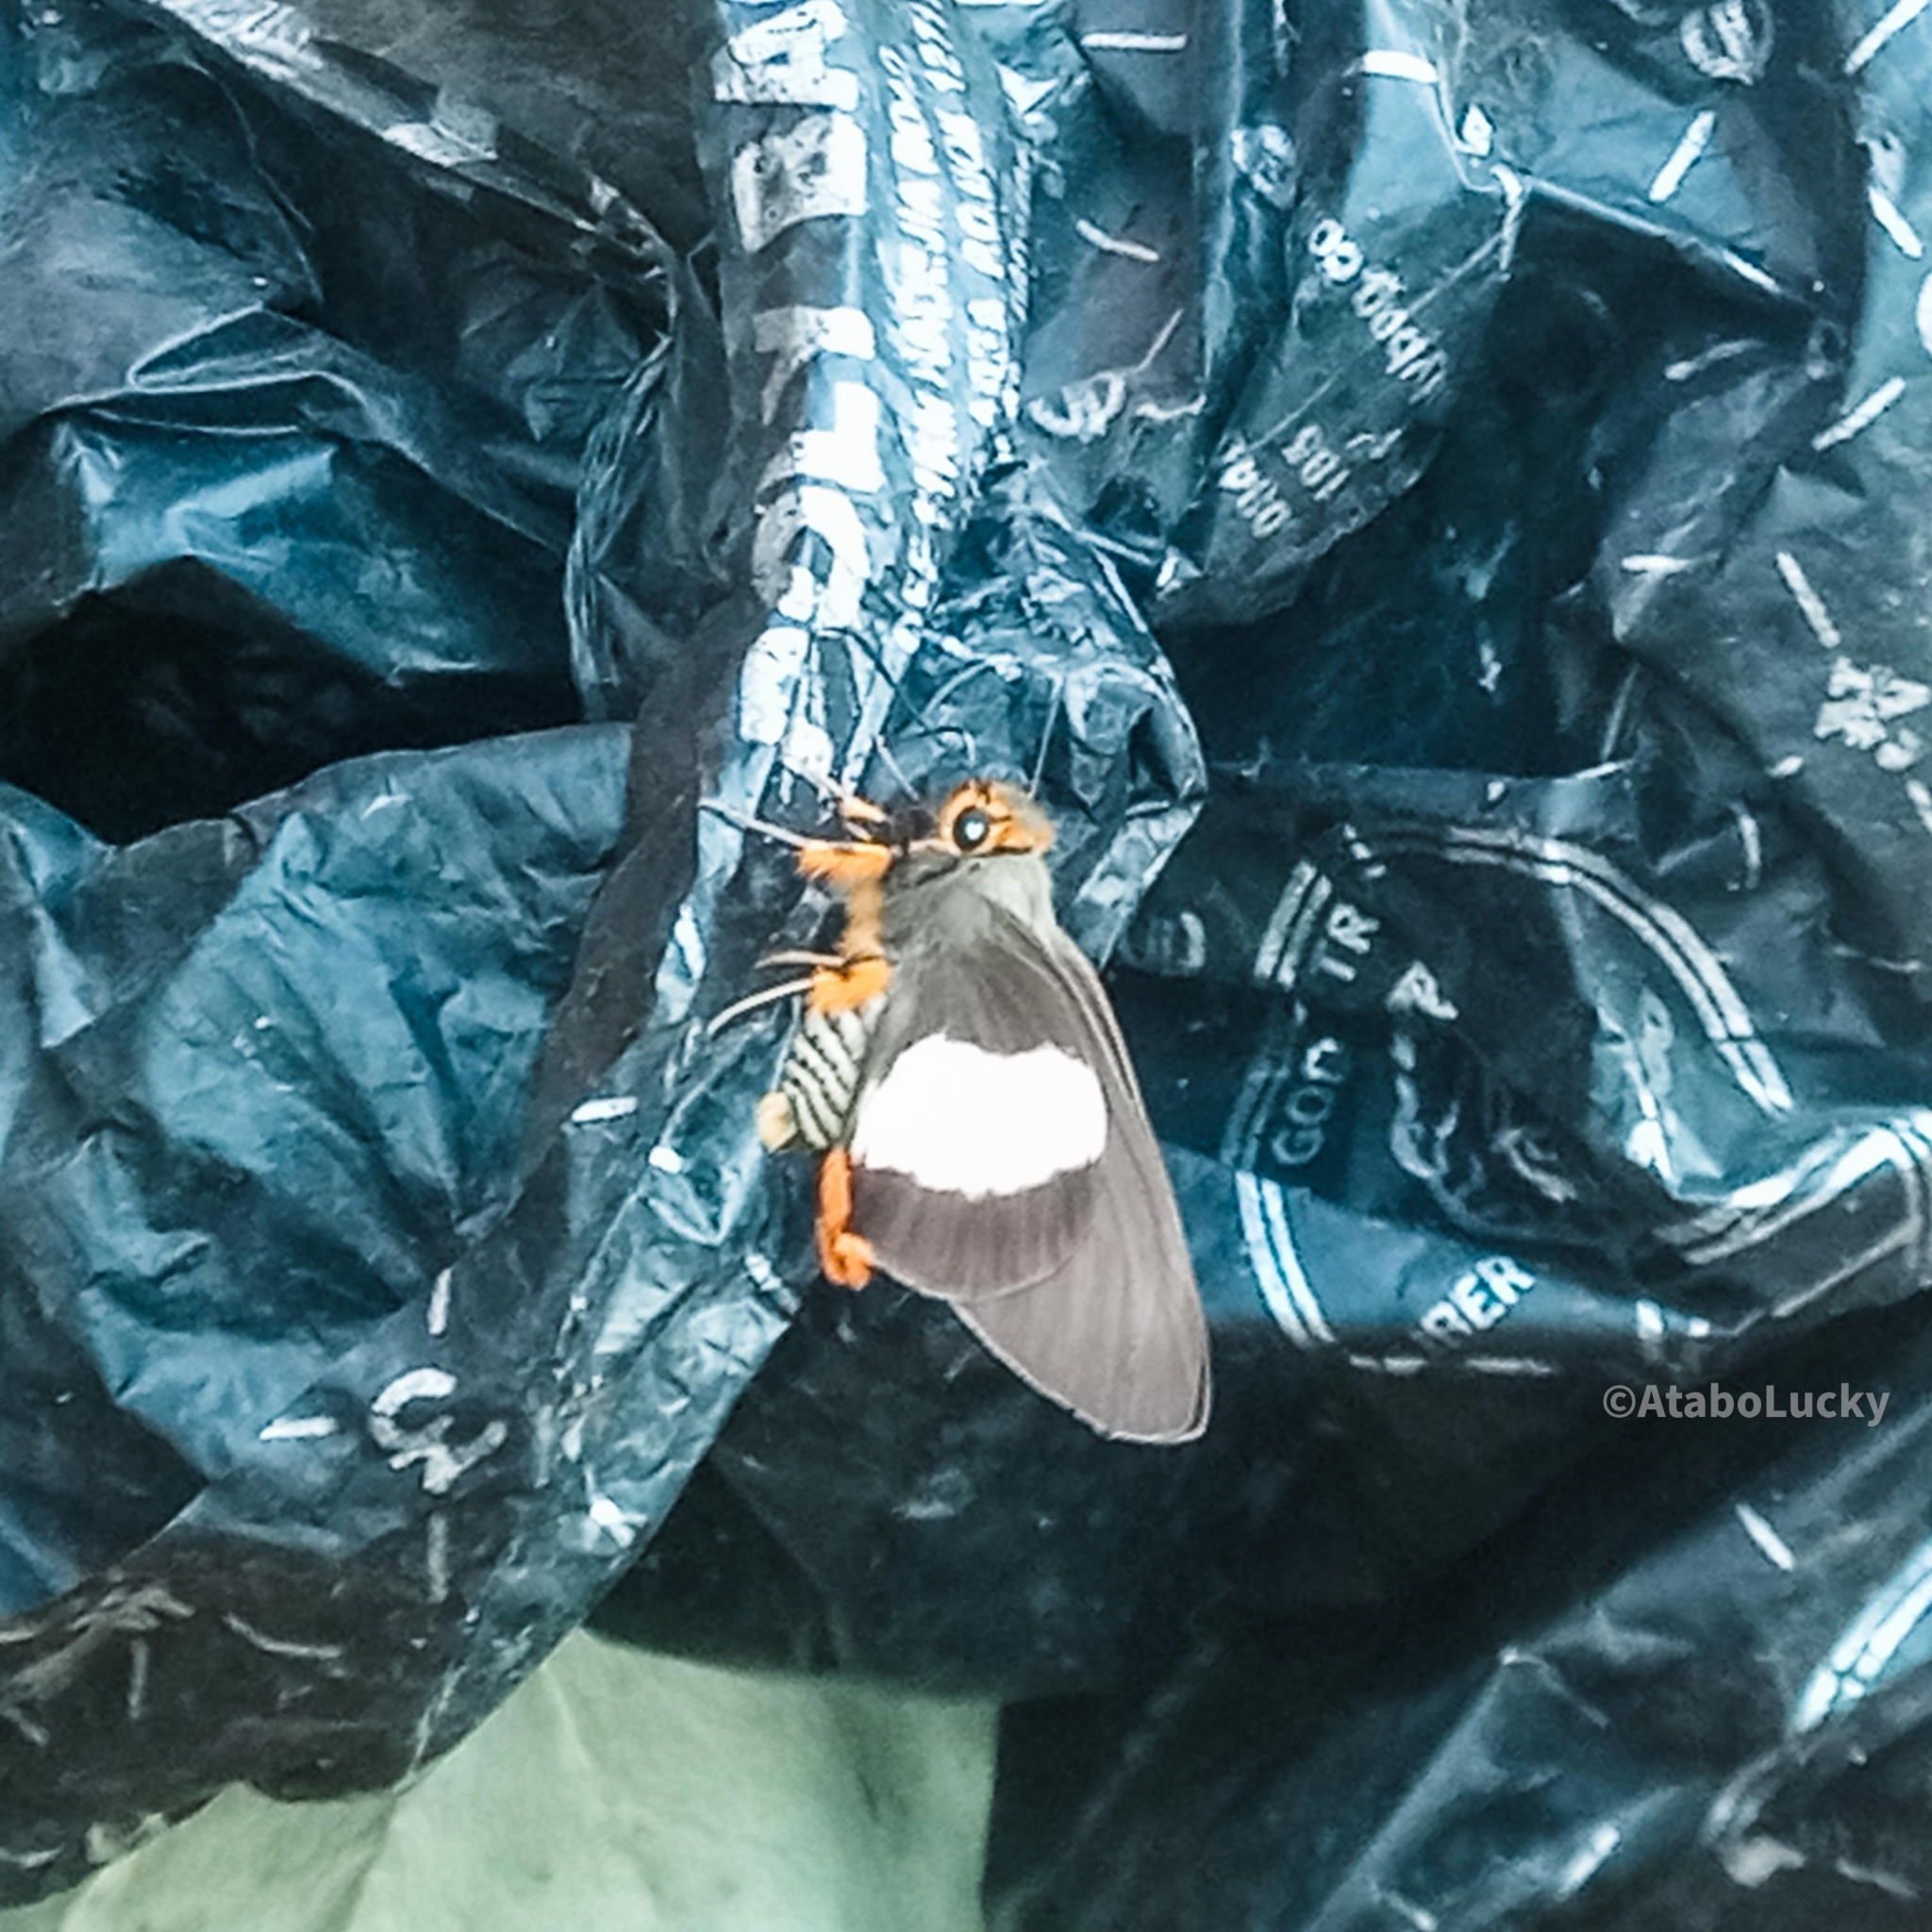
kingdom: Animalia
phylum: Arthropoda
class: Insecta
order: Lepidoptera
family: Hesperiidae
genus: Coeliades
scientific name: Coeliades forestan
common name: Striped policeman
